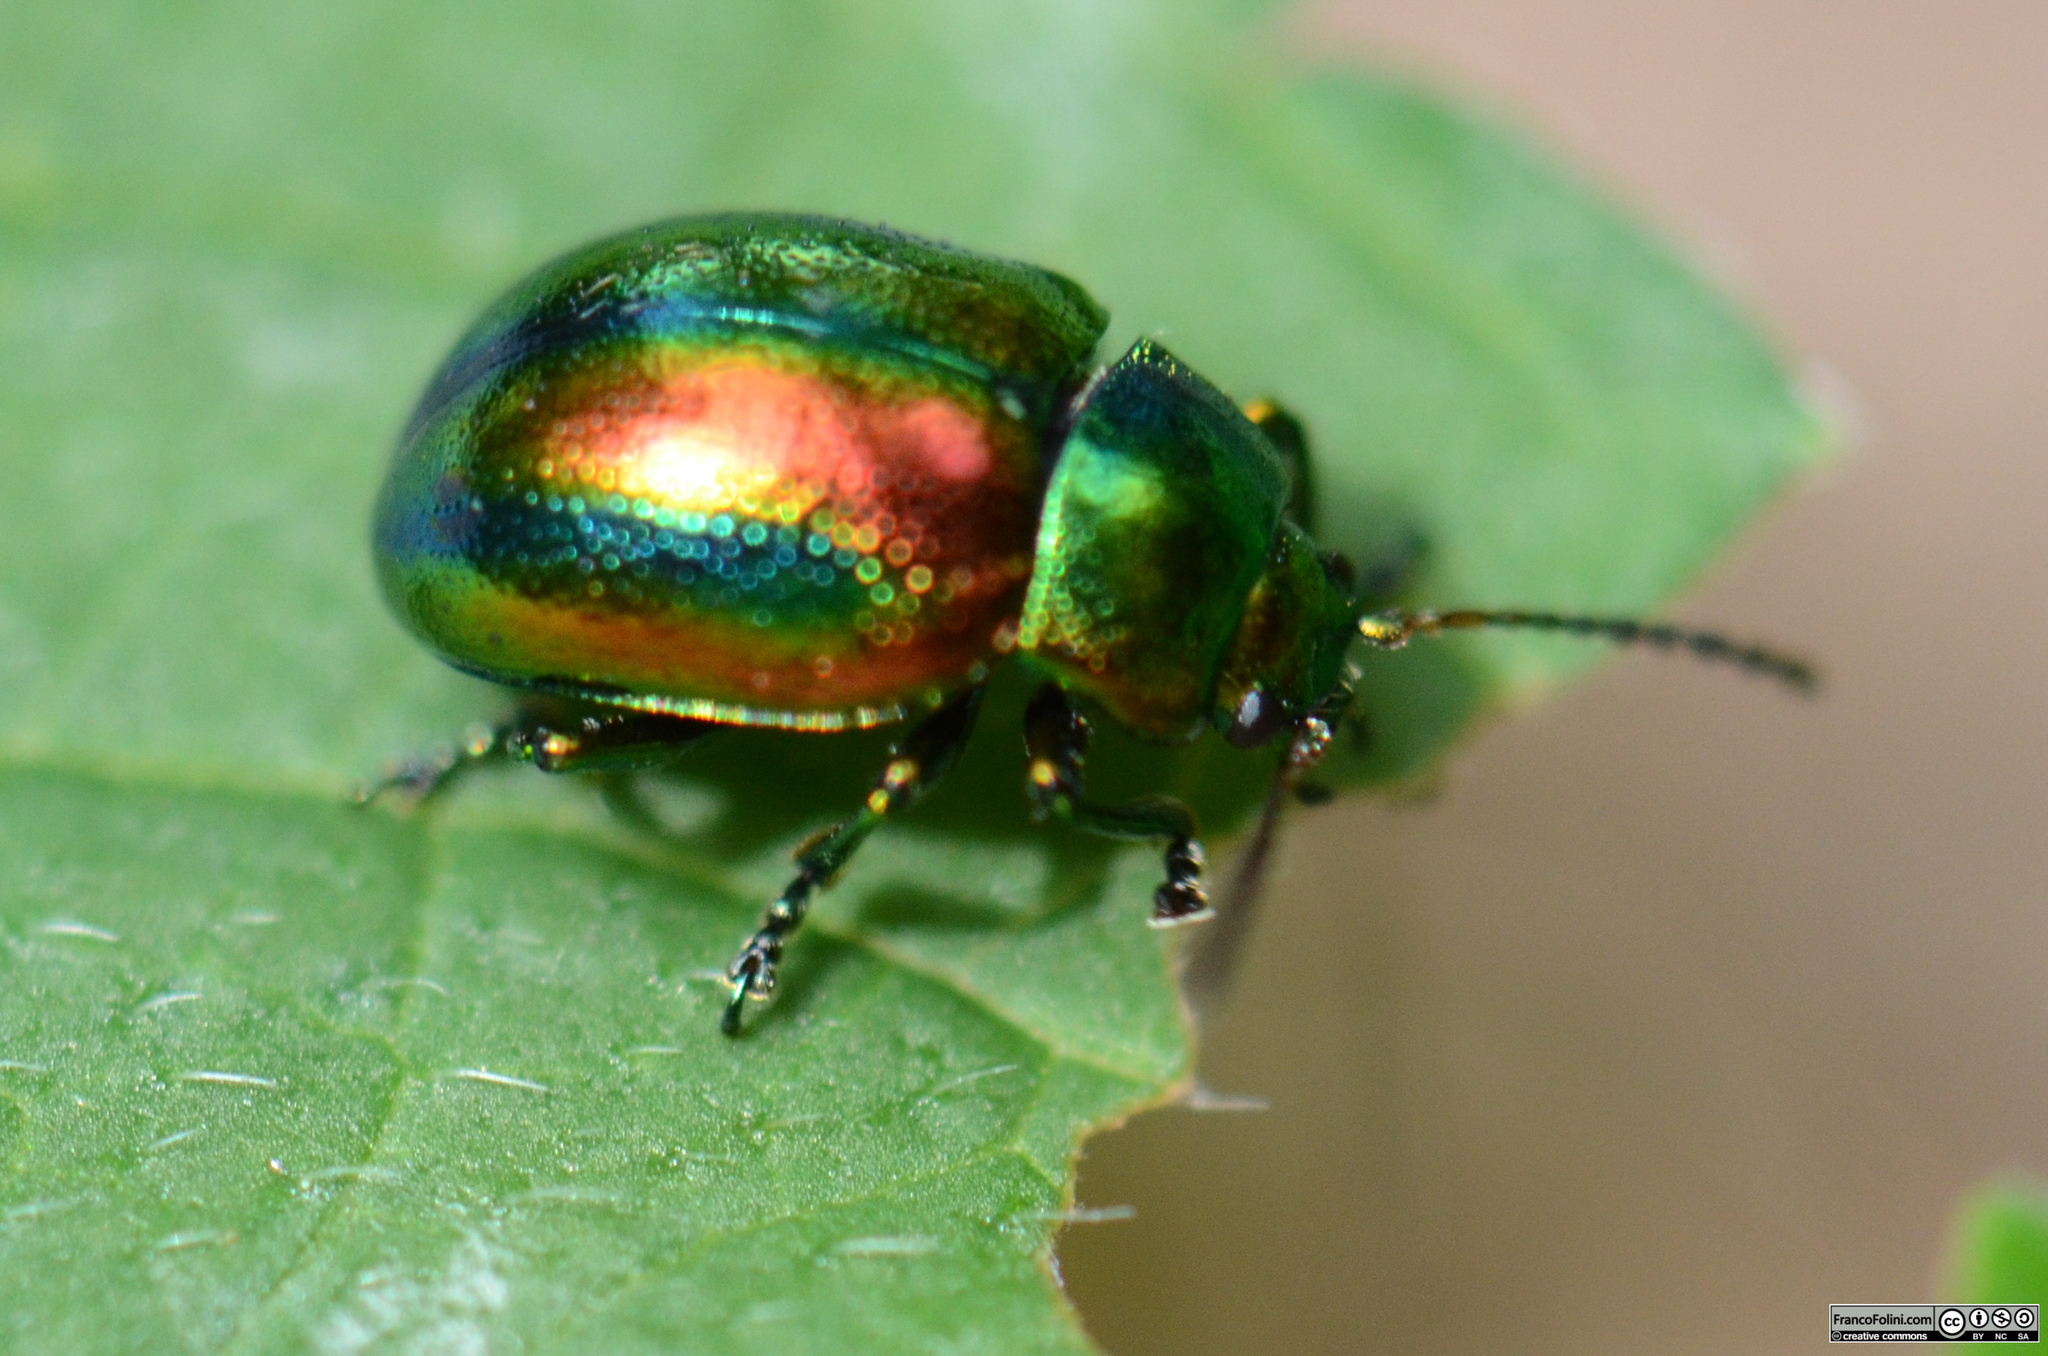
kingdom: Animalia
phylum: Arthropoda
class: Insecta
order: Coleoptera
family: Chrysomelidae
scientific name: Chrysomelidae
